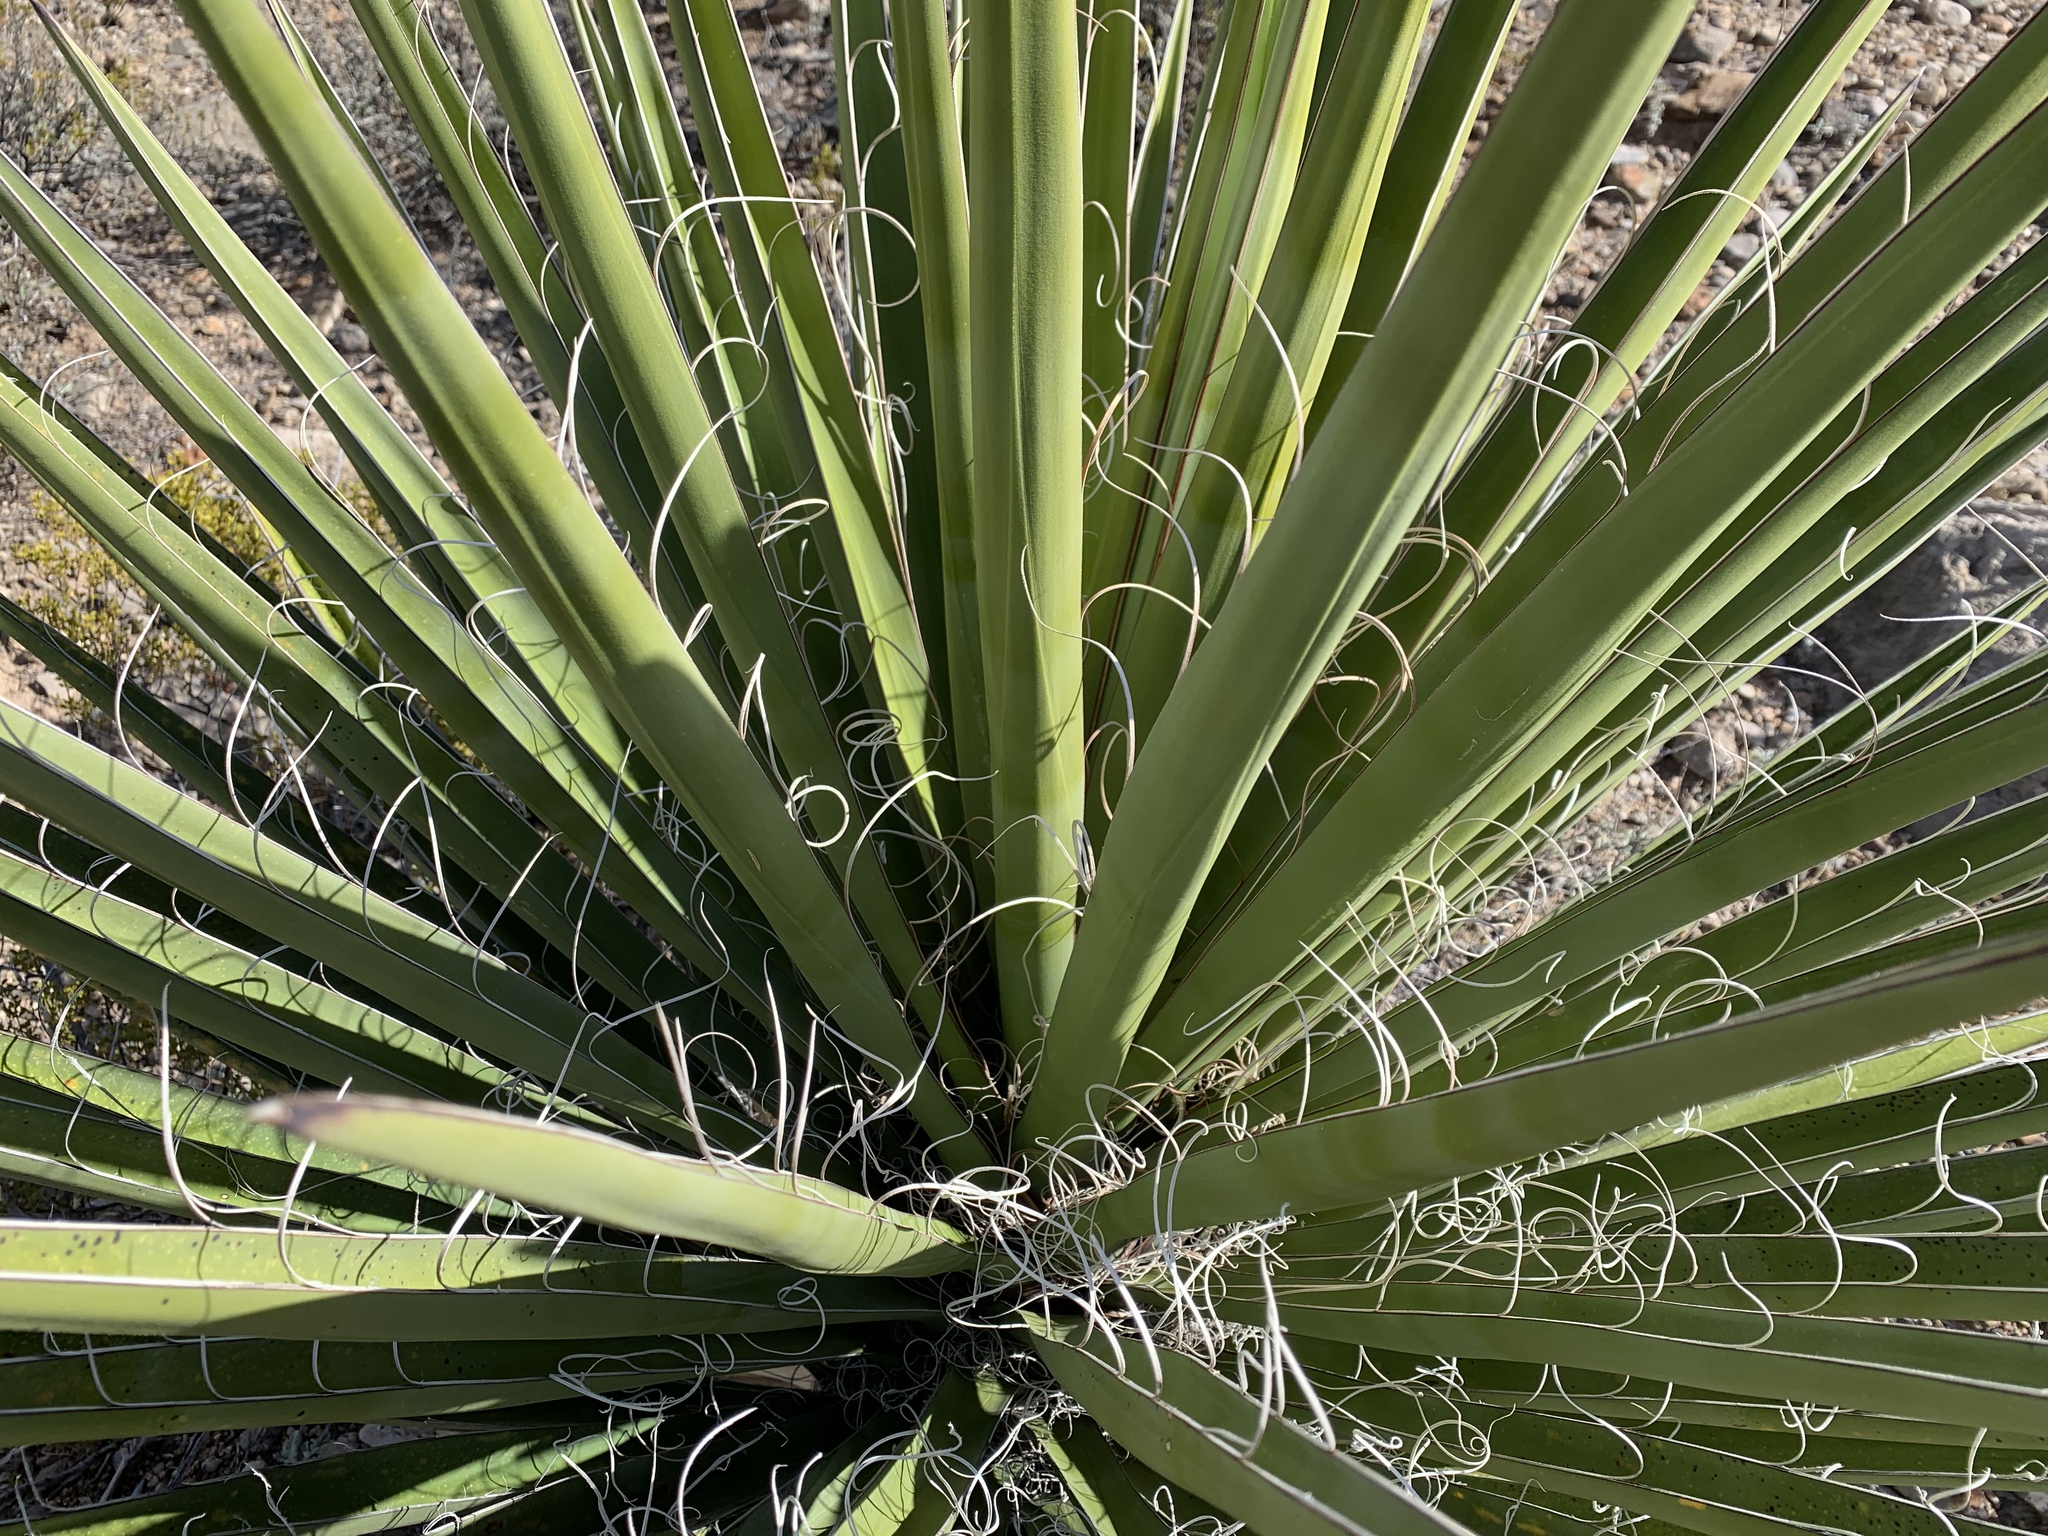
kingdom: Plantae
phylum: Tracheophyta
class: Liliopsida
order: Asparagales
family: Asparagaceae
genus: Yucca
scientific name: Yucca treculiana
